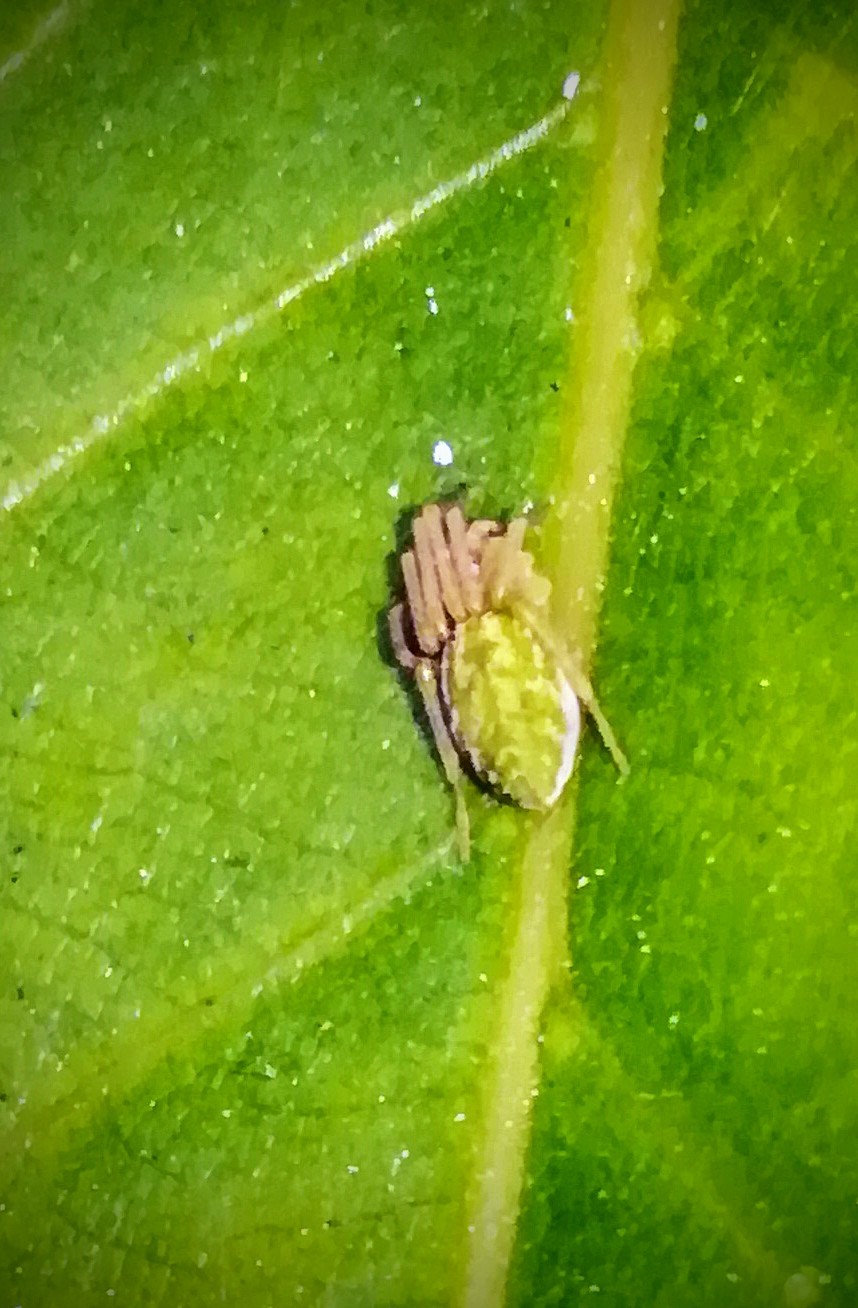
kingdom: Animalia
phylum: Arthropoda
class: Arachnida
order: Araneae
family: Dictynidae
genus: Nigma
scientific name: Nigma walckenaeri
